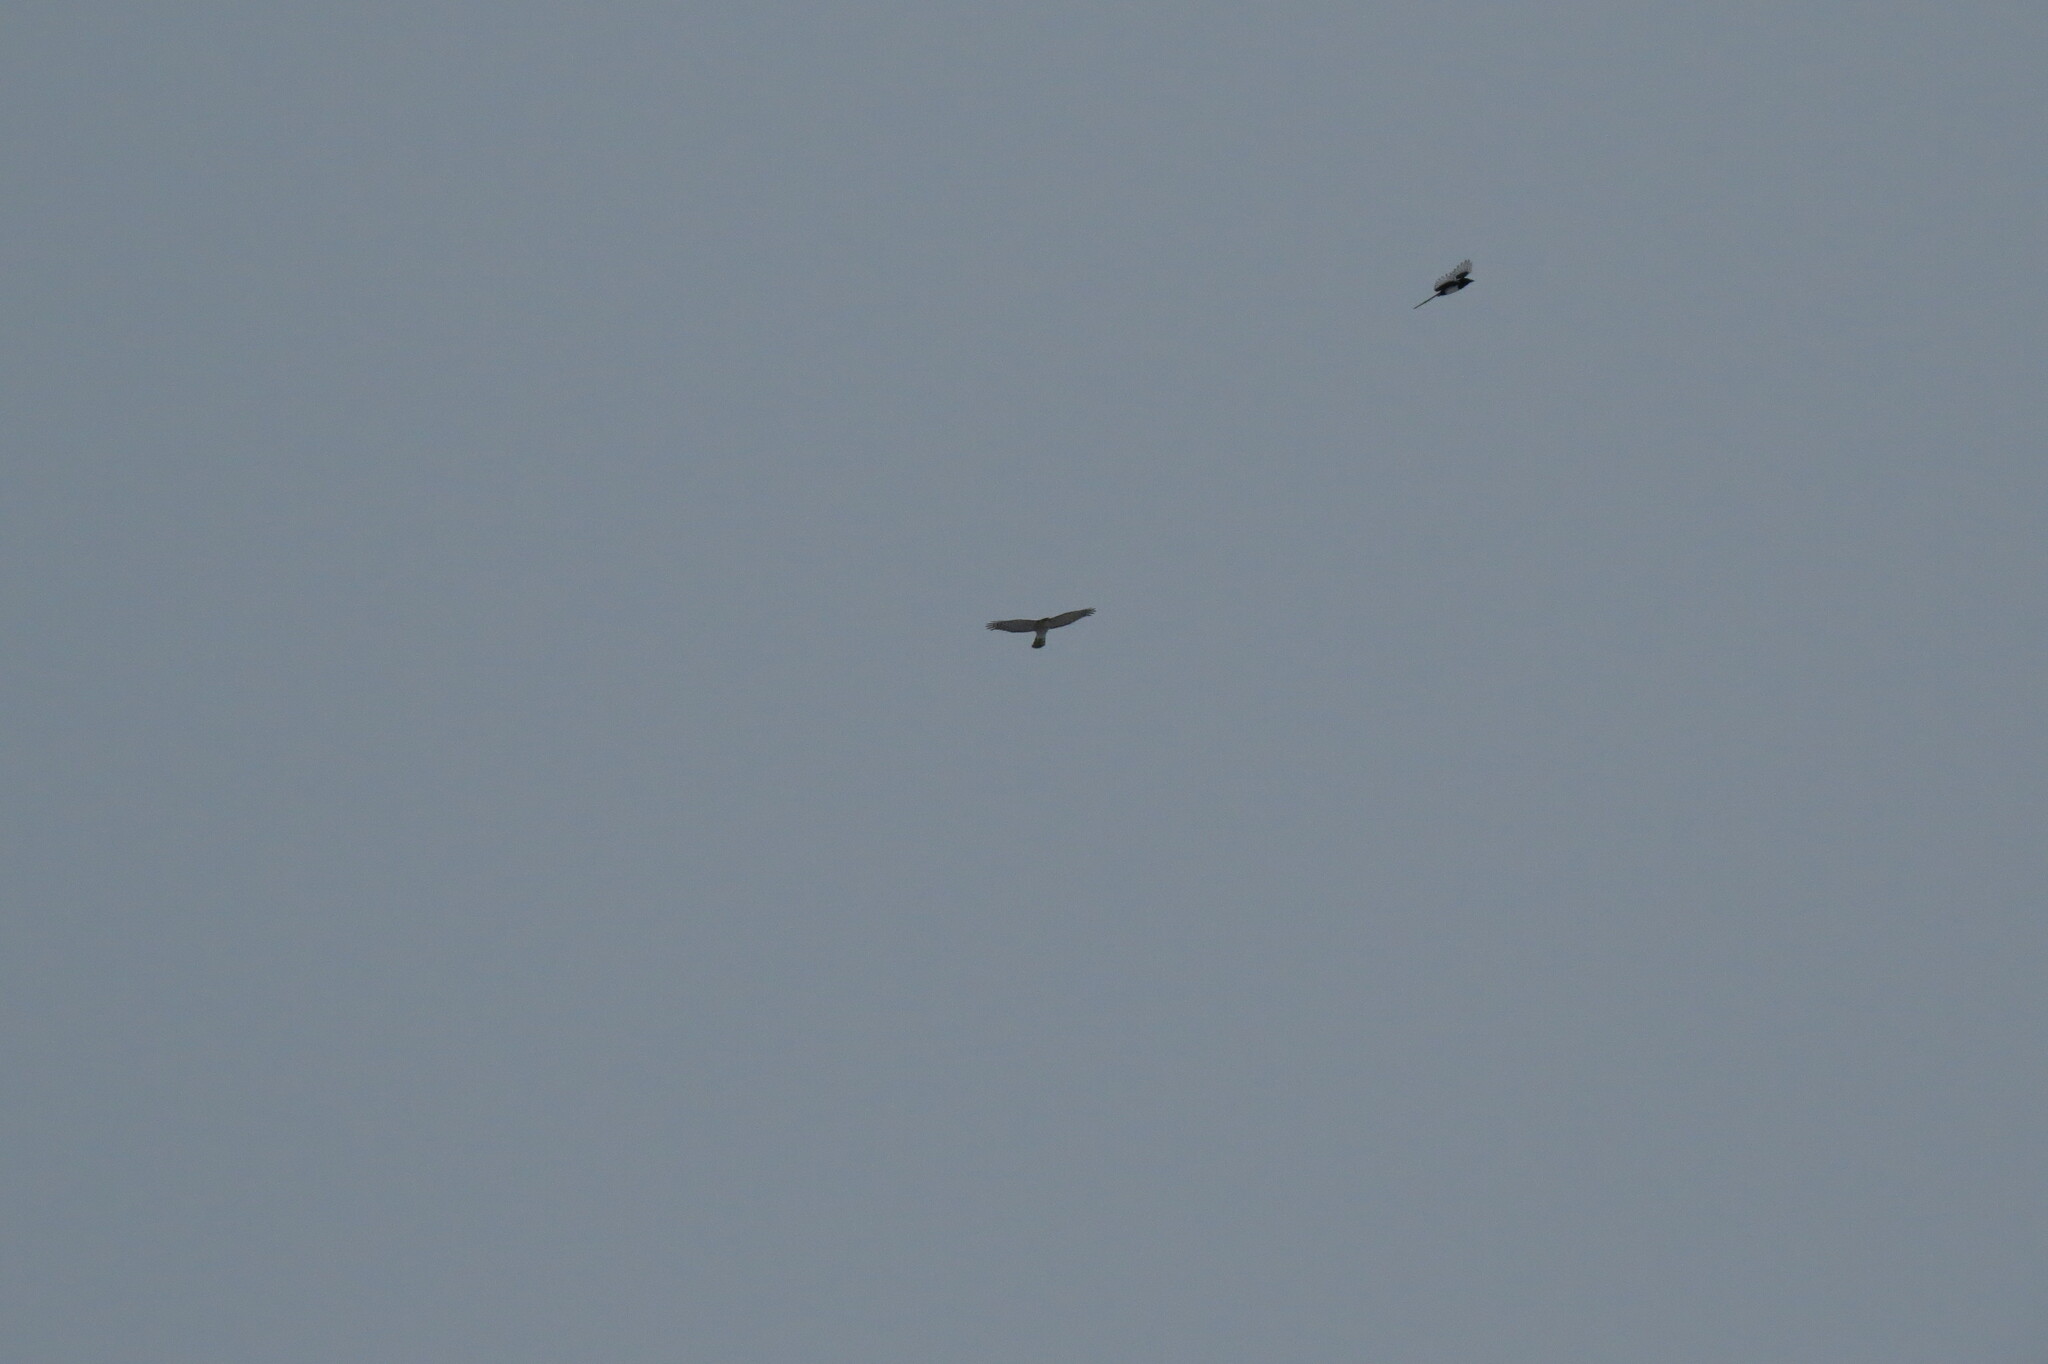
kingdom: Animalia
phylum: Chordata
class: Aves
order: Passeriformes
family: Corvidae
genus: Pica
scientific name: Pica pica
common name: Eurasian magpie
